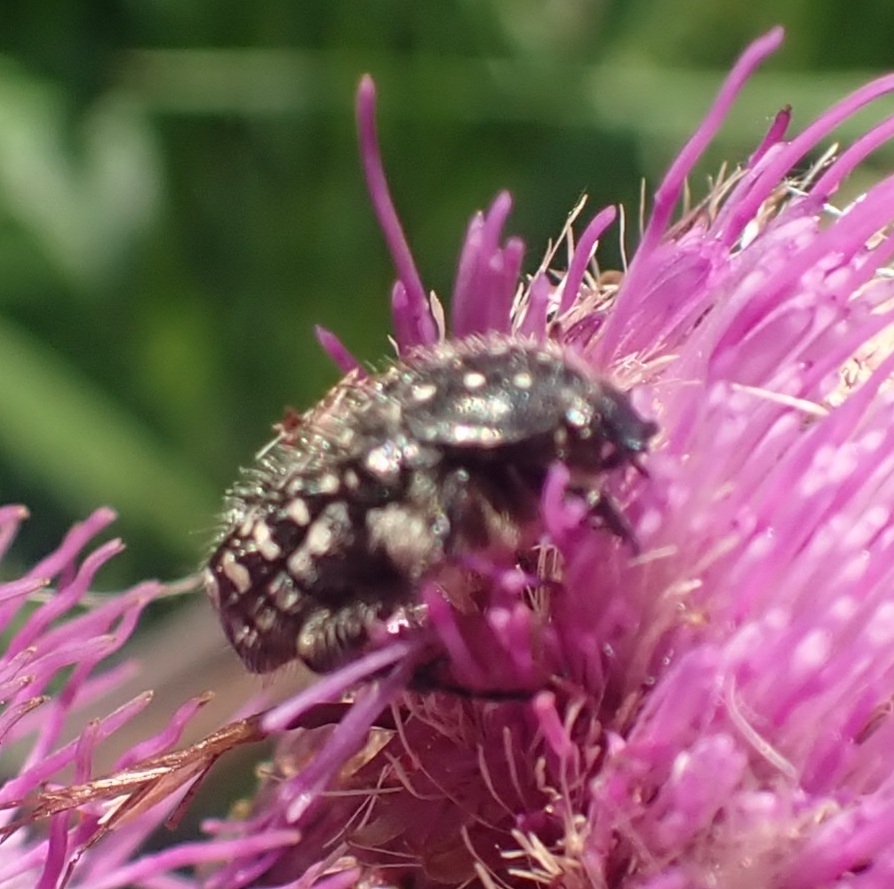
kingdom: Animalia
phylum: Arthropoda
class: Insecta
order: Coleoptera
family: Scarabaeidae
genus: Oxythyrea
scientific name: Oxythyrea funesta
